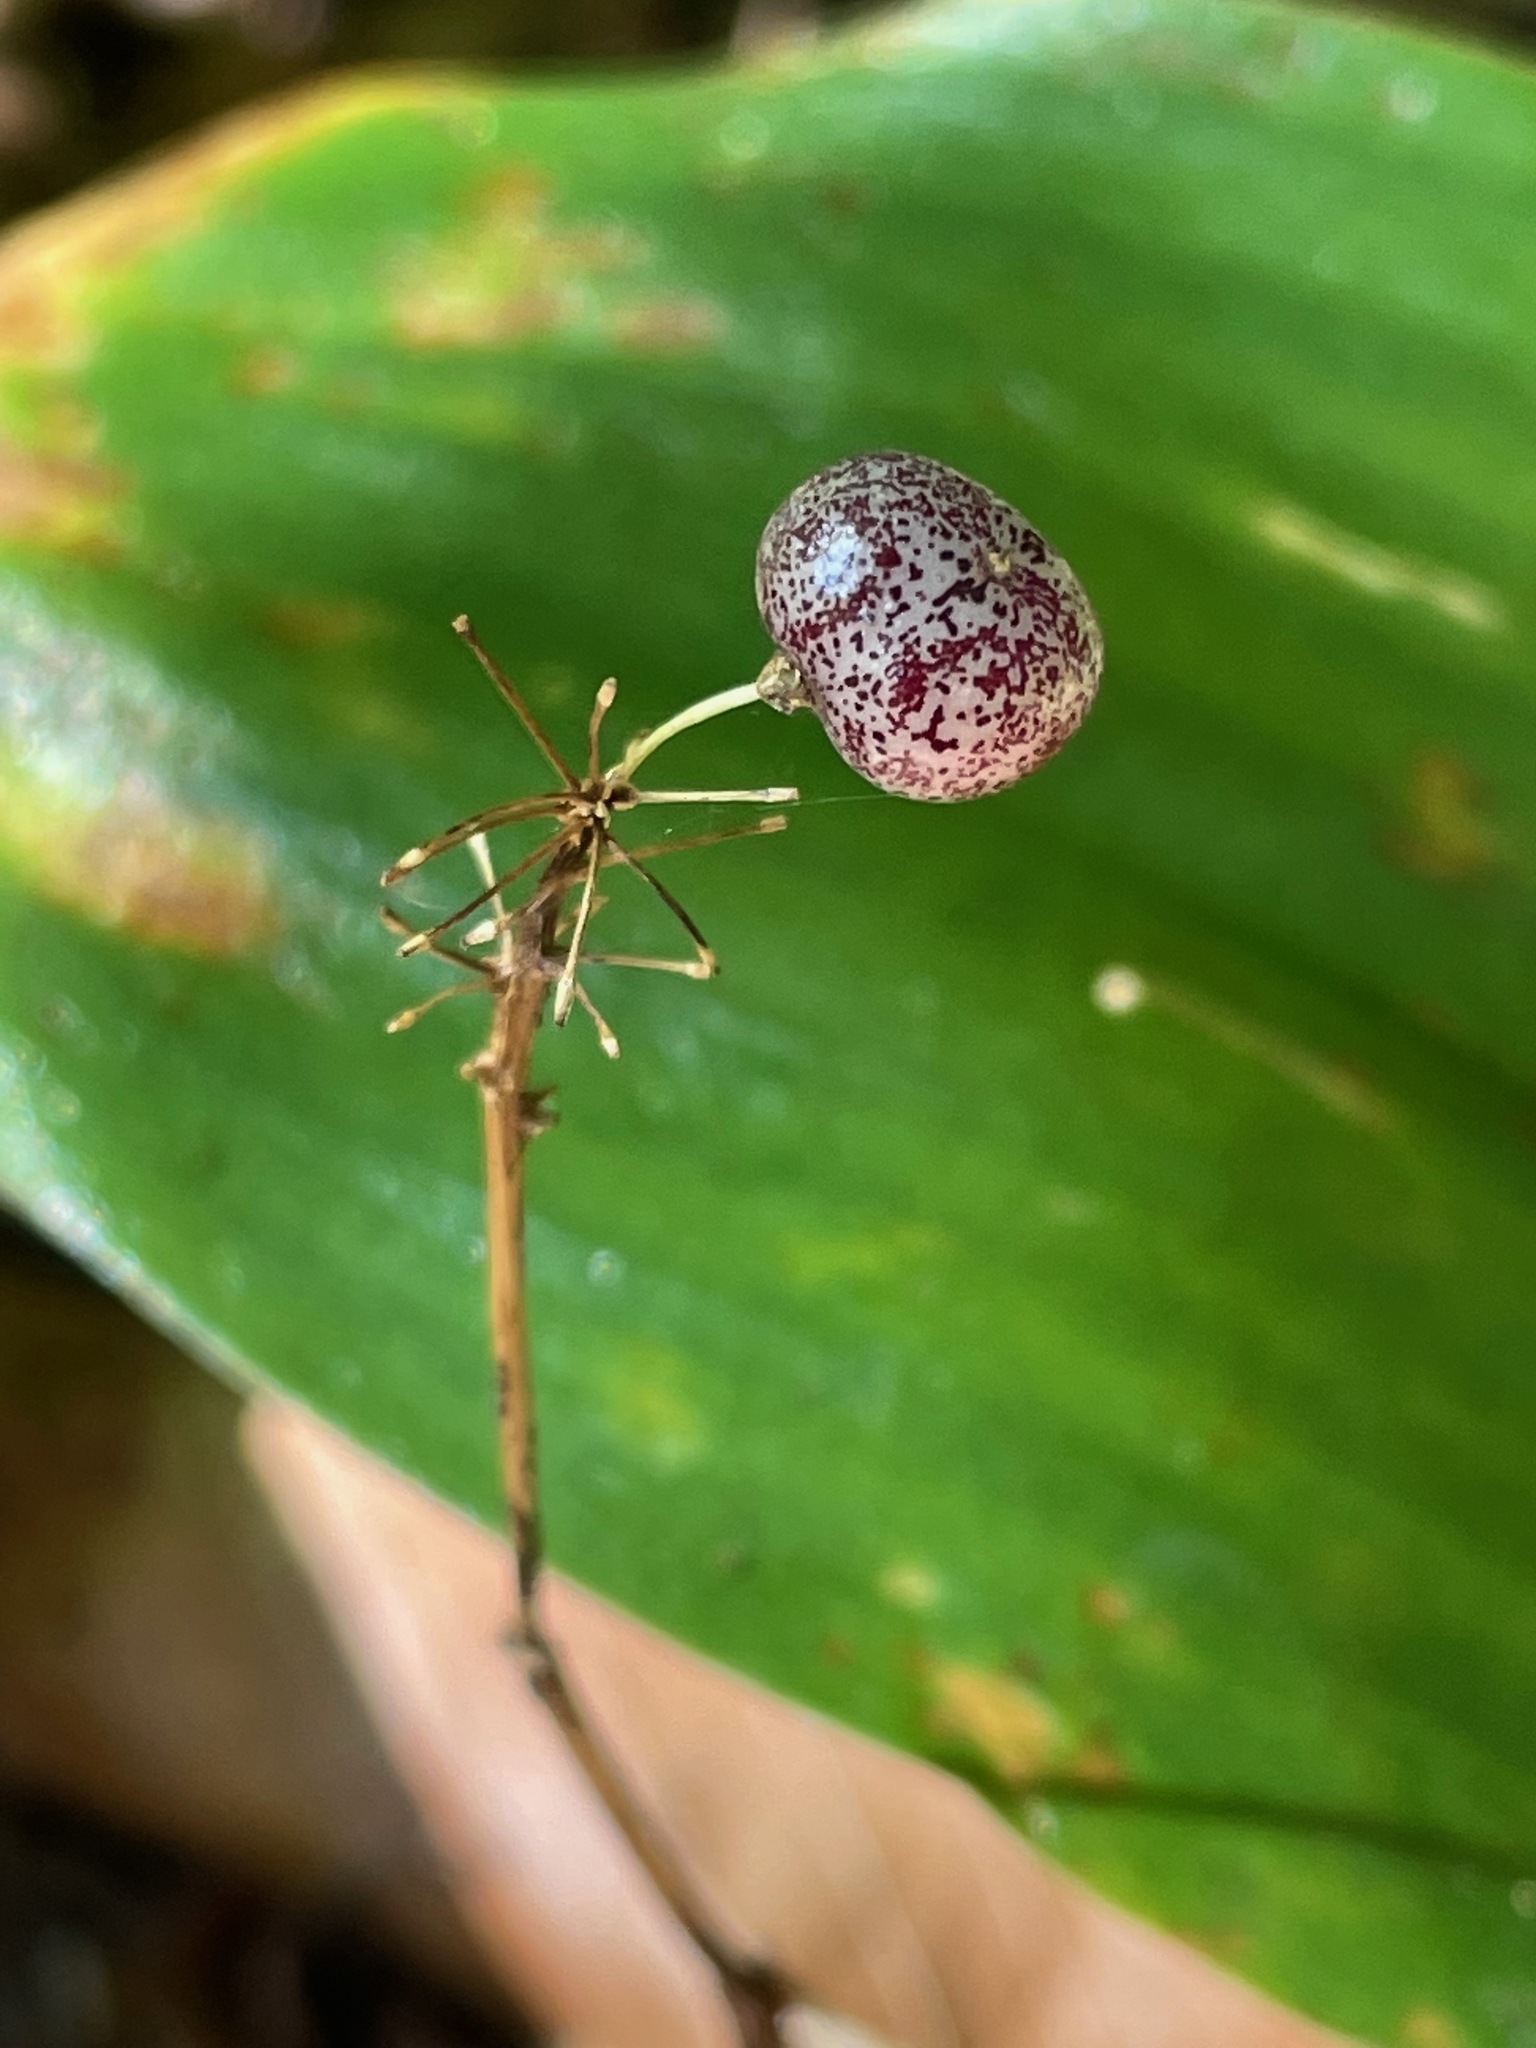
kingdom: Plantae
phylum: Tracheophyta
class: Liliopsida
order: Asparagales
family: Asparagaceae
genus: Maianthemum
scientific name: Maianthemum canadense
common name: False lily-of-the-valley
